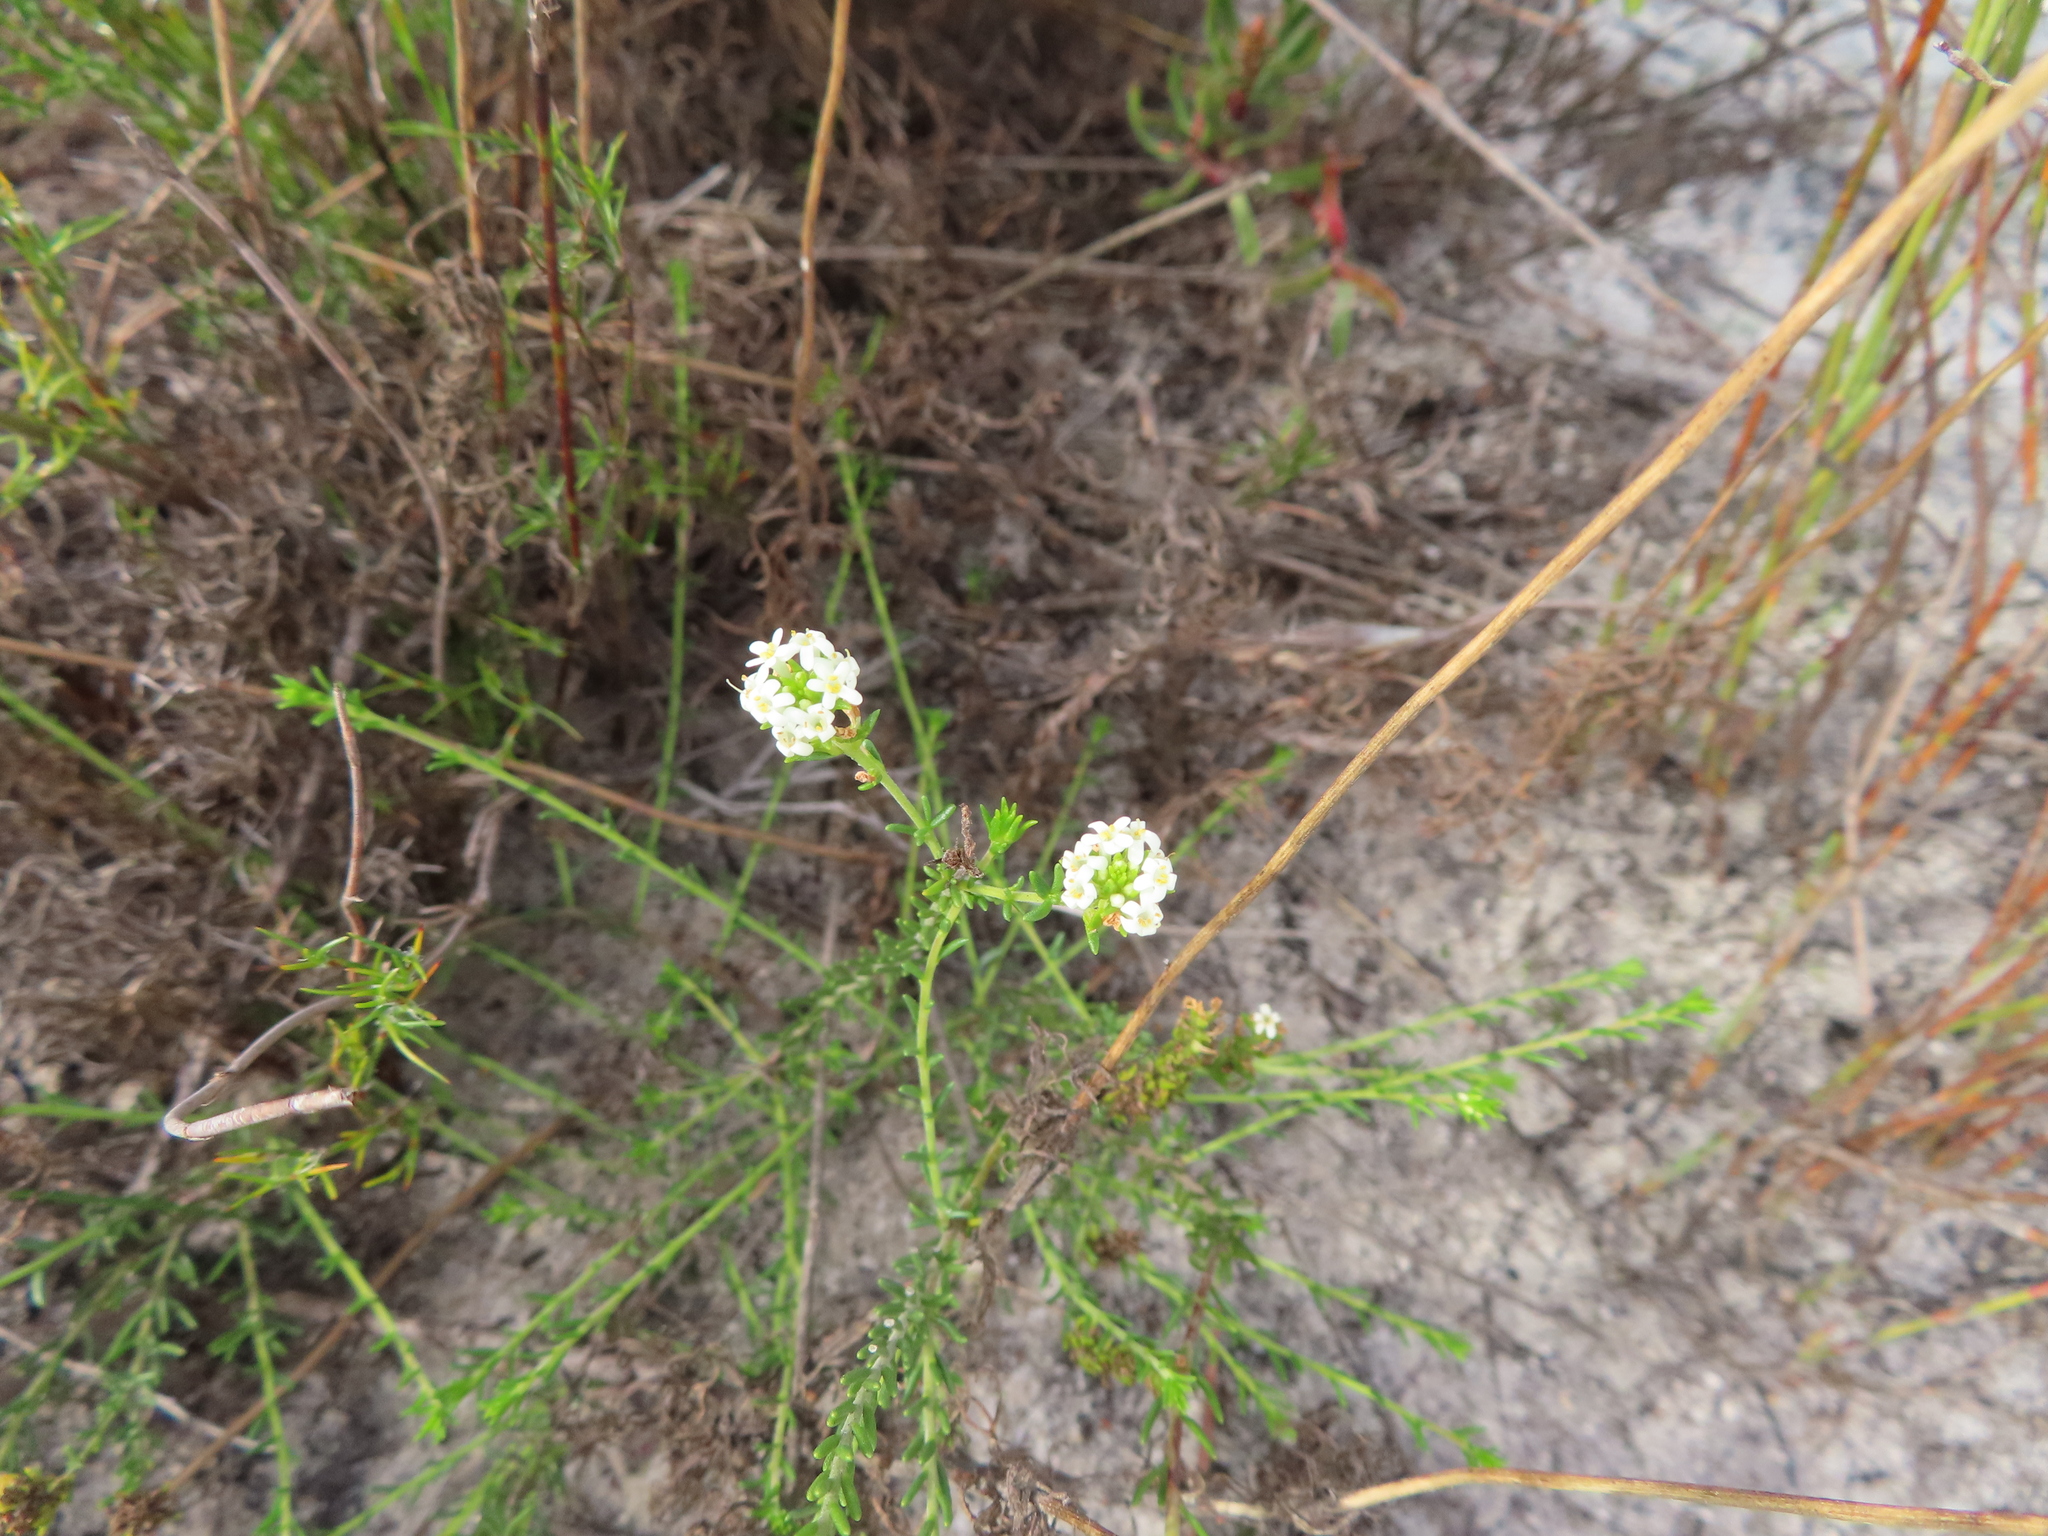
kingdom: Plantae
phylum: Tracheophyta
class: Magnoliopsida
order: Lamiales
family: Scrophulariaceae
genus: Selago
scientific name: Selago polystachya
